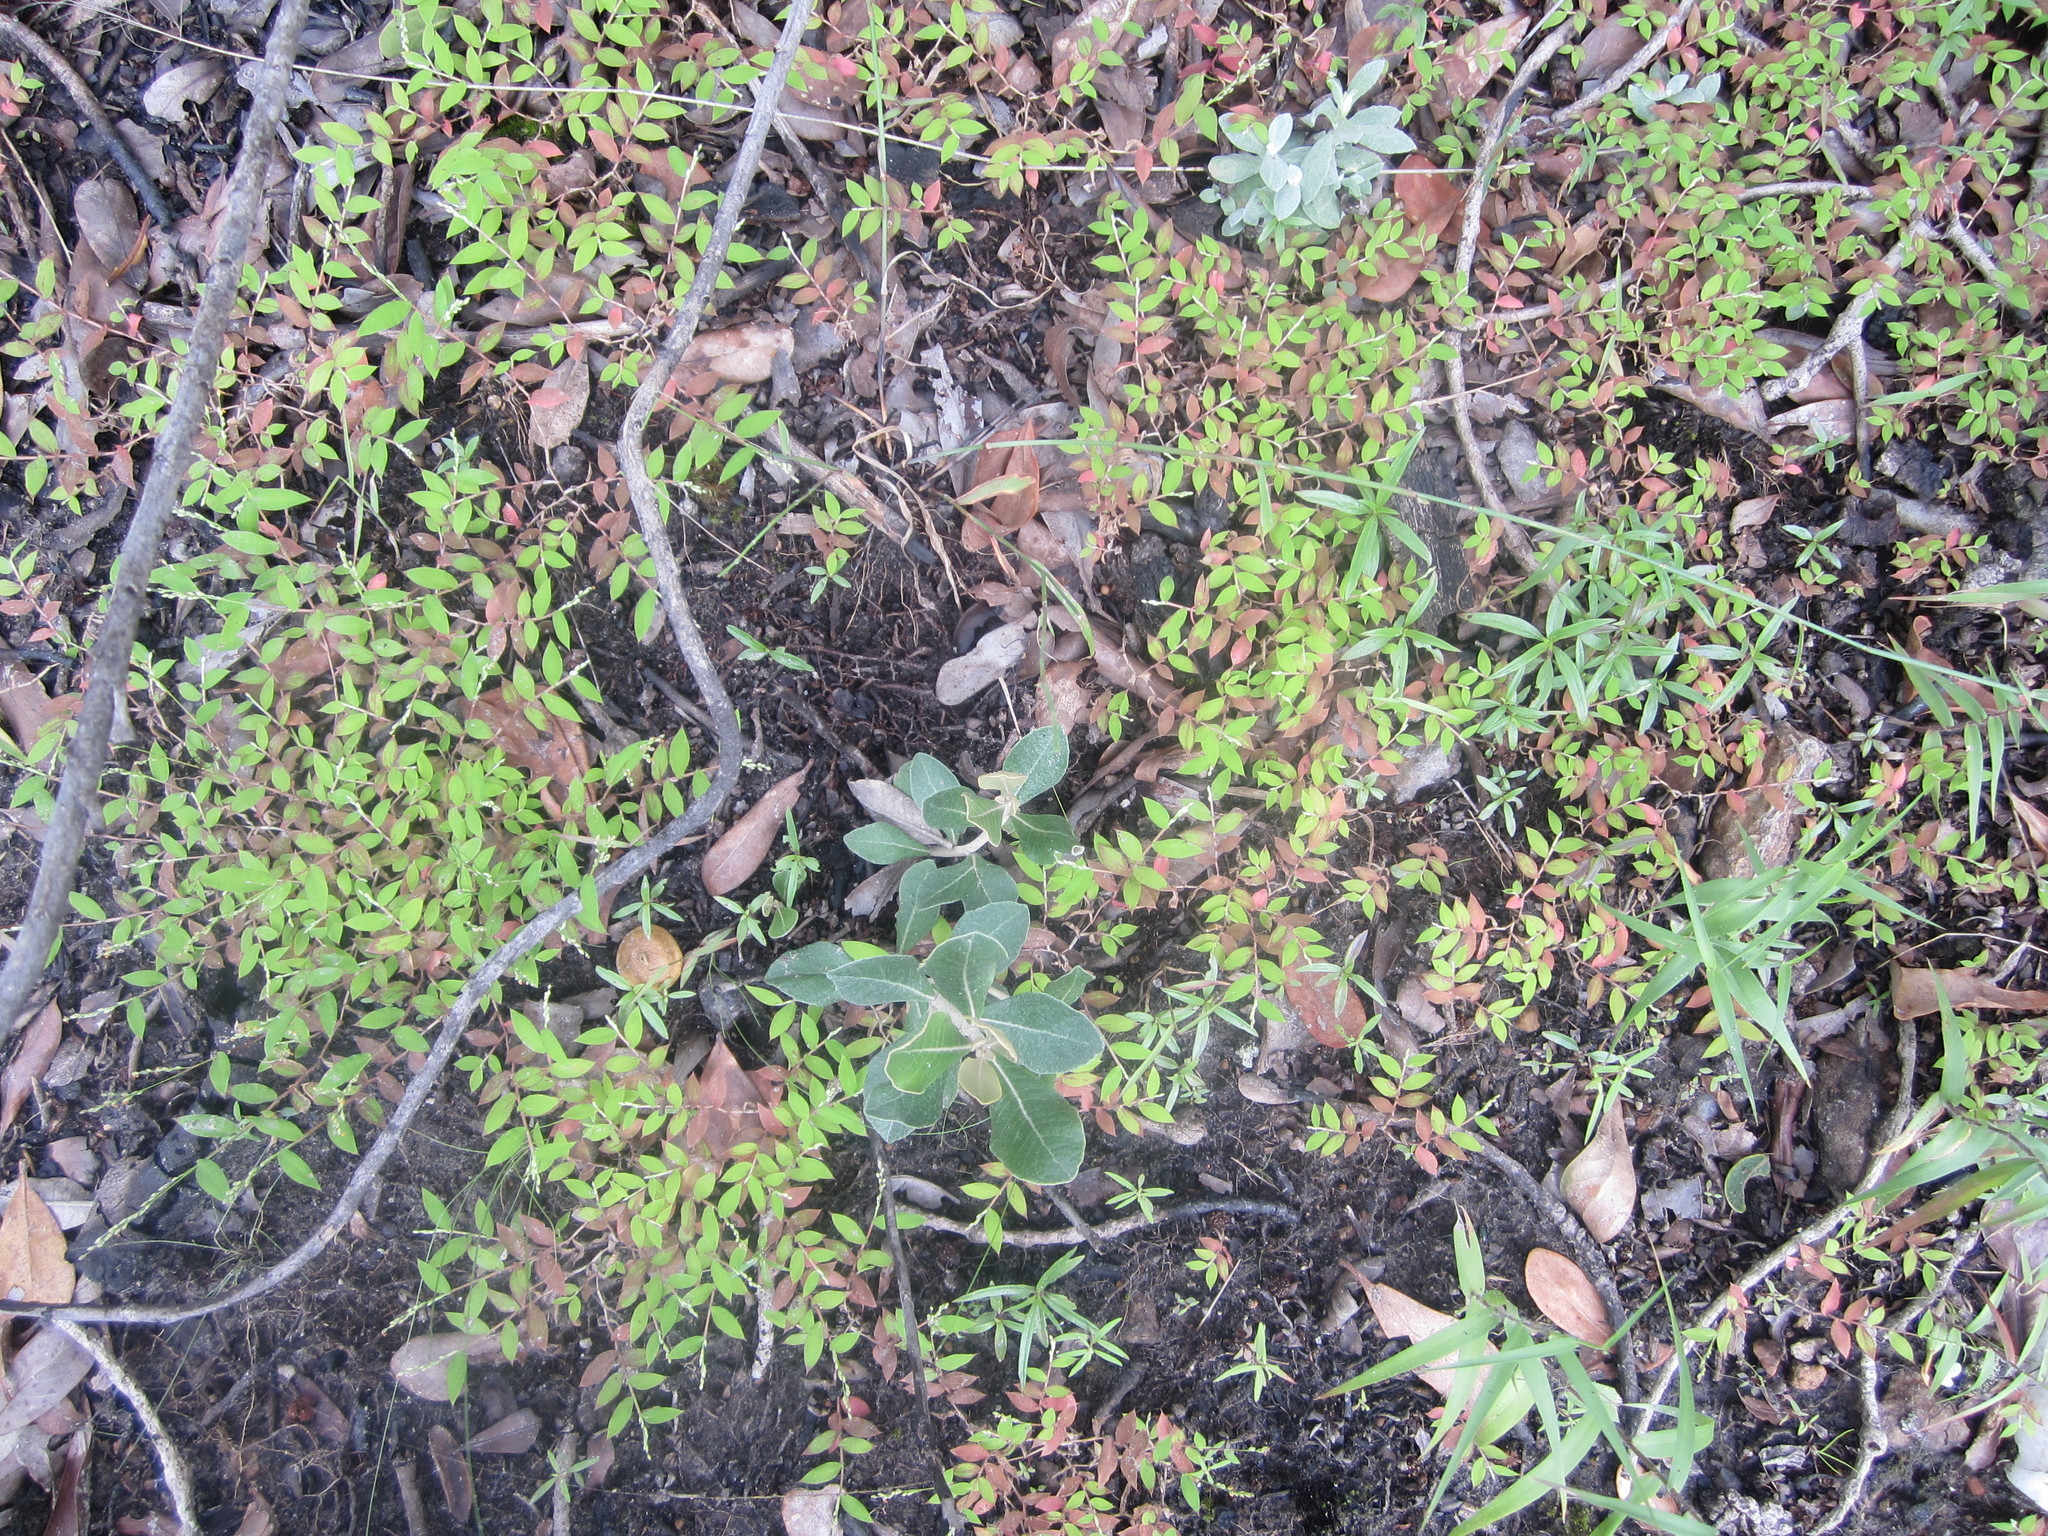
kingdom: Plantae
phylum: Tracheophyta
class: Liliopsida
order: Poales
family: Poaceae
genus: Urochloa
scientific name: Urochloa Brachiaria bemarivensis
